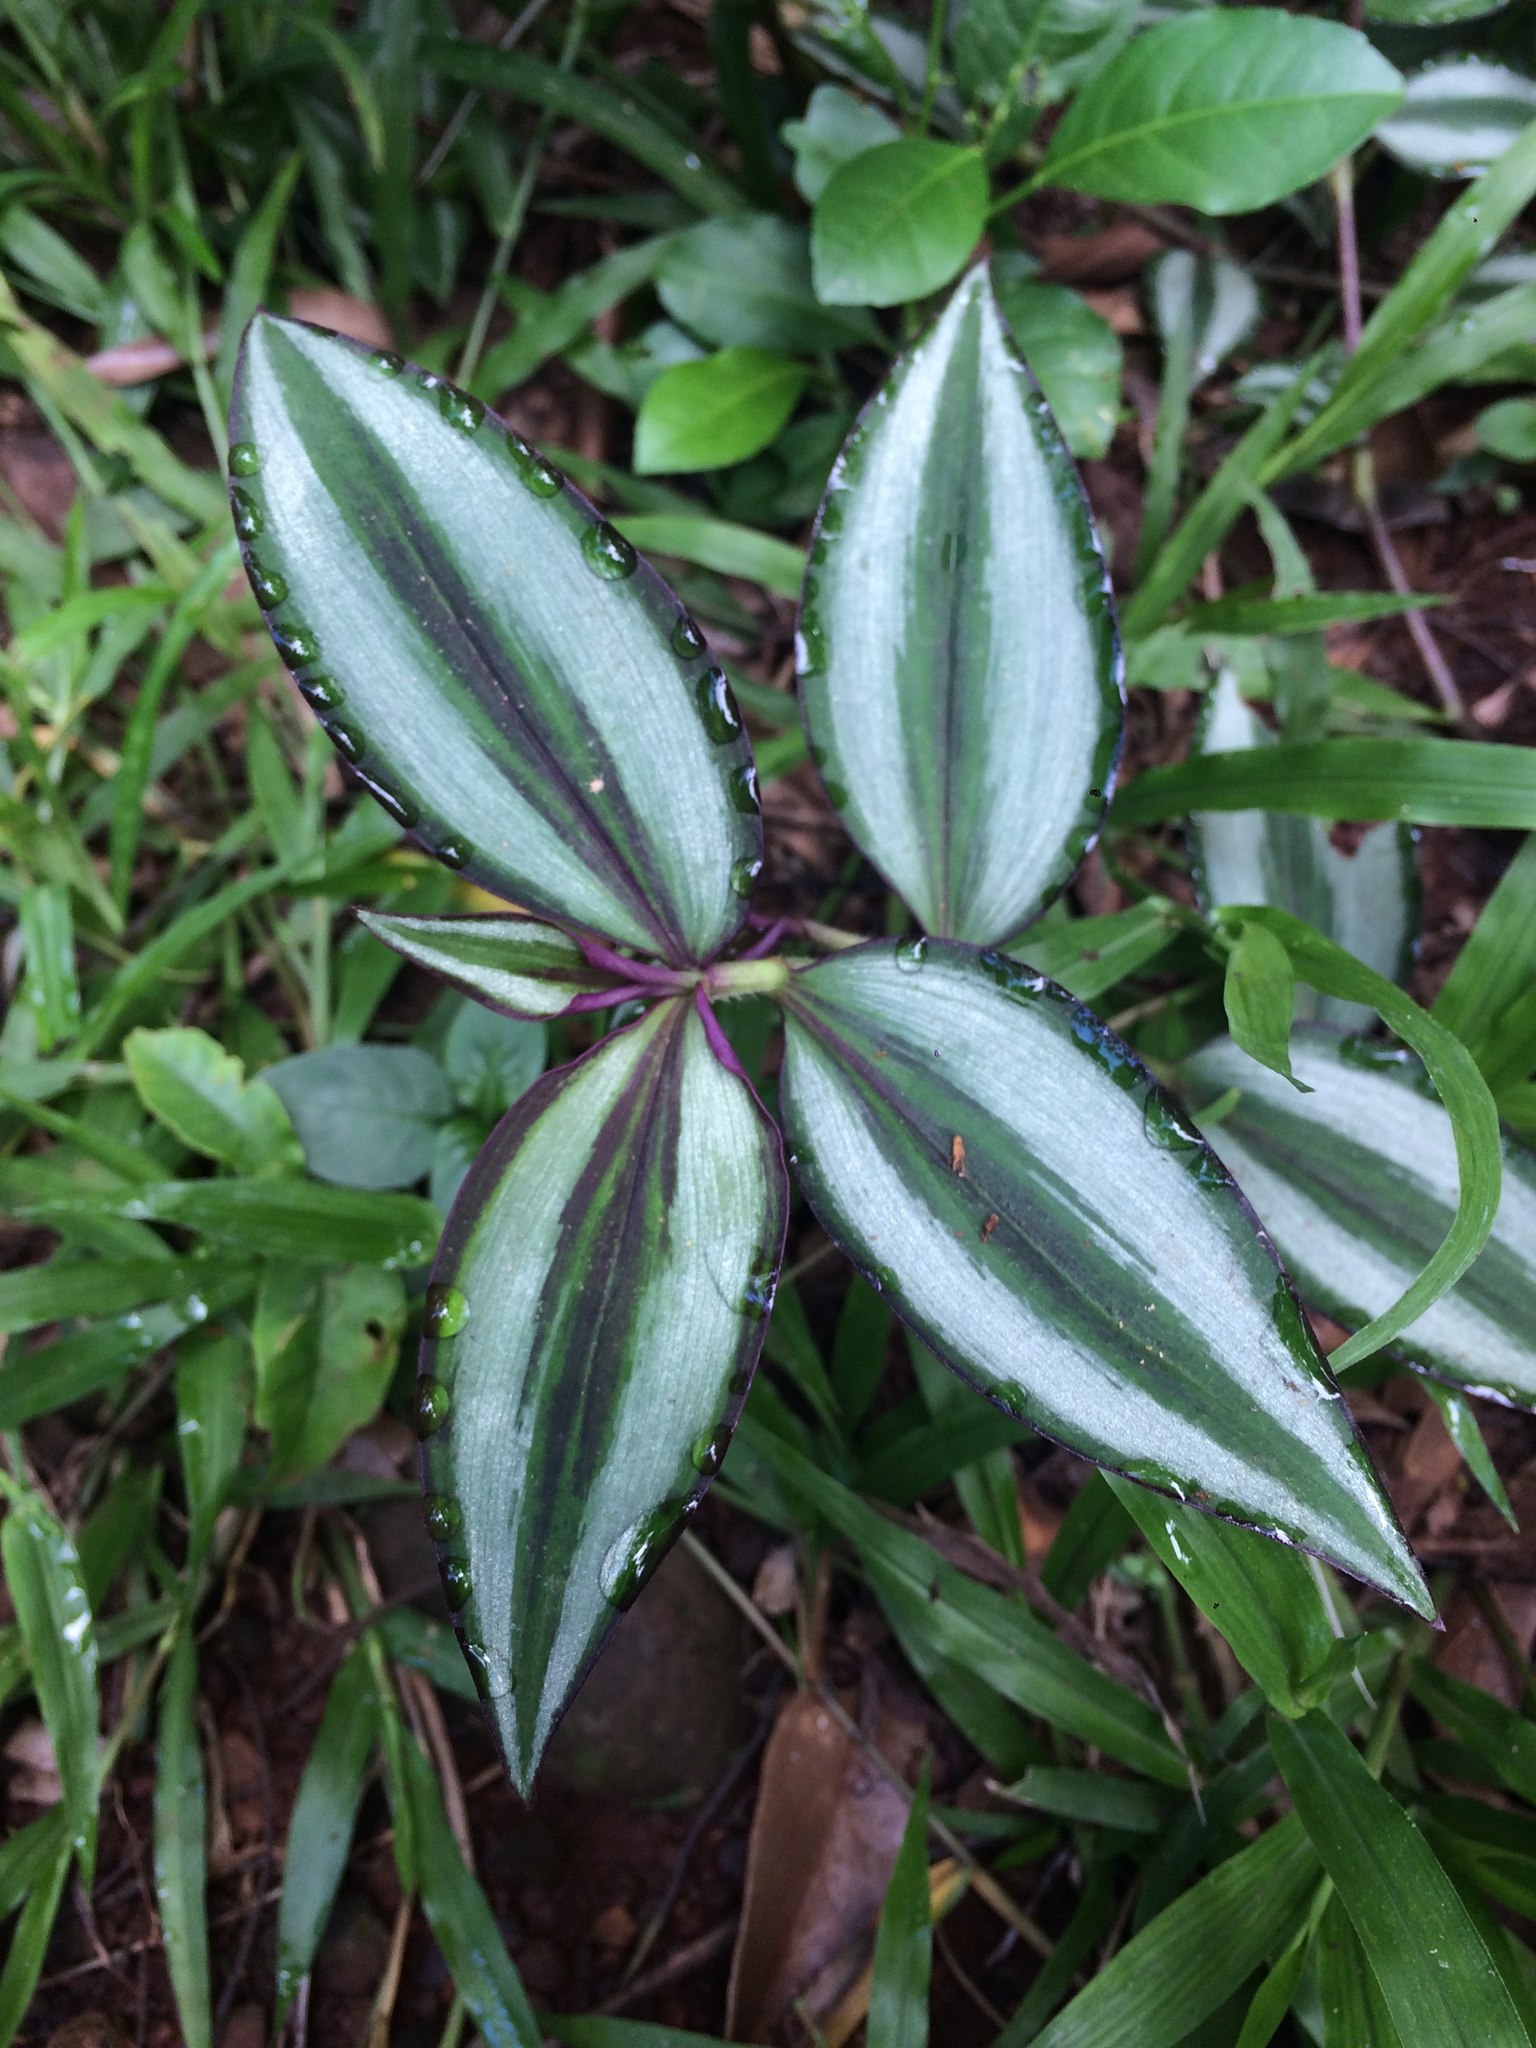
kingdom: Plantae
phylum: Tracheophyta
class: Liliopsida
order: Commelinales
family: Commelinaceae
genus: Tradescantia
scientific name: Tradescantia zebrina
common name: Inchplant
